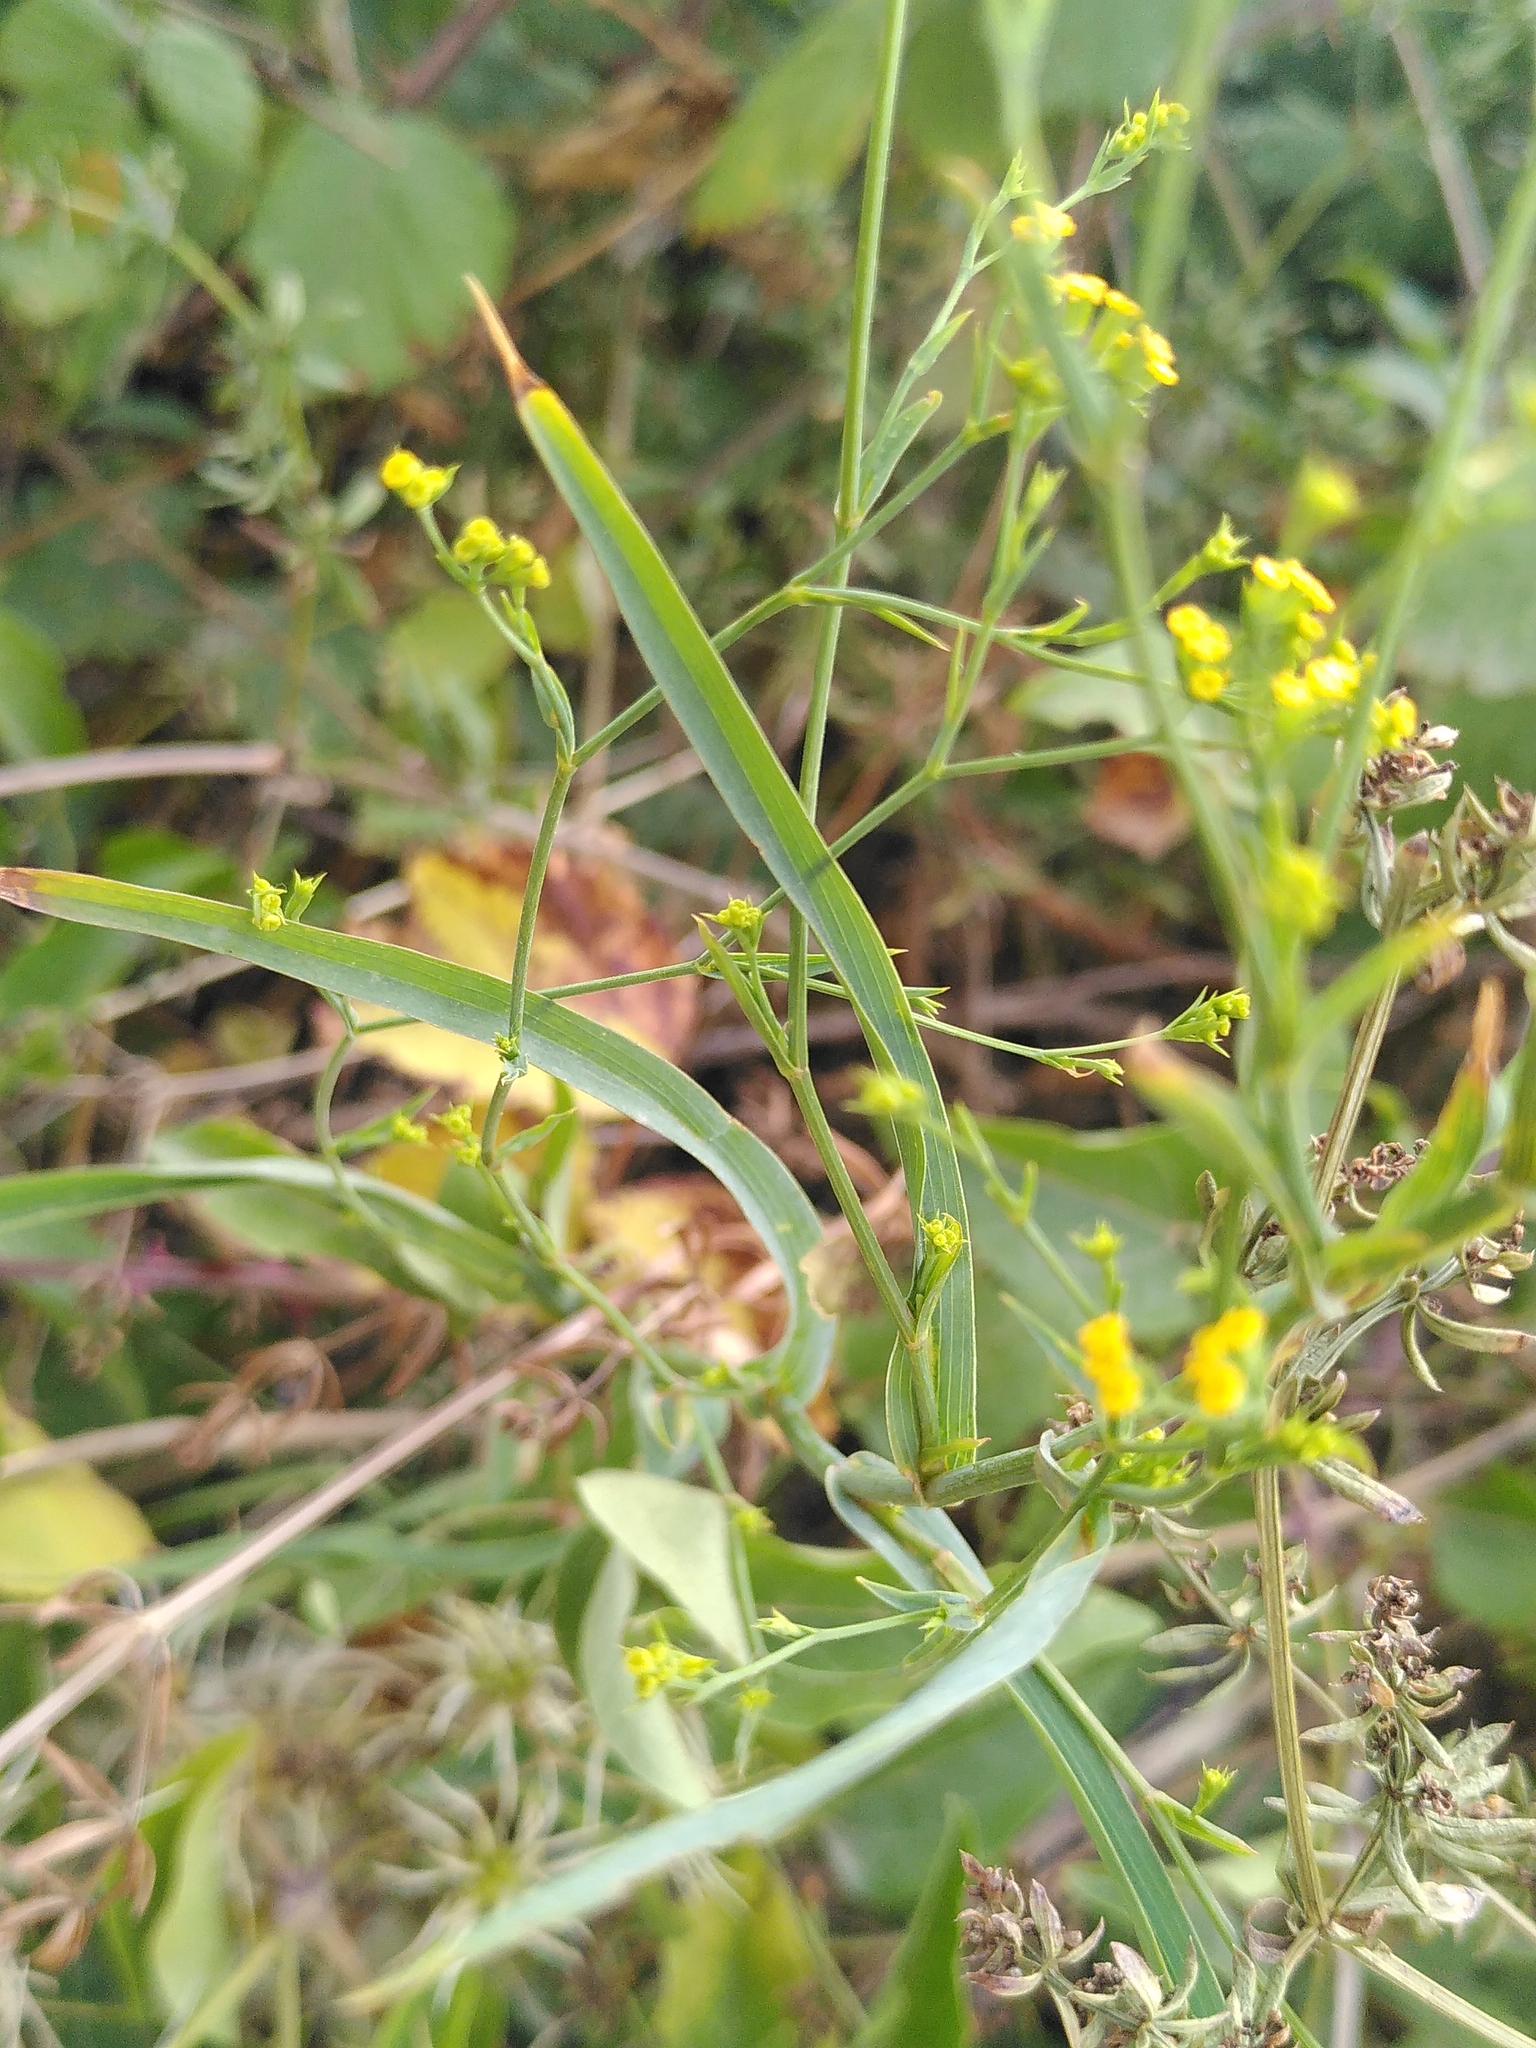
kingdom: Plantae
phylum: Tracheophyta
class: Magnoliopsida
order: Apiales
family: Apiaceae
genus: Bupleurum
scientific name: Bupleurum praealtum
